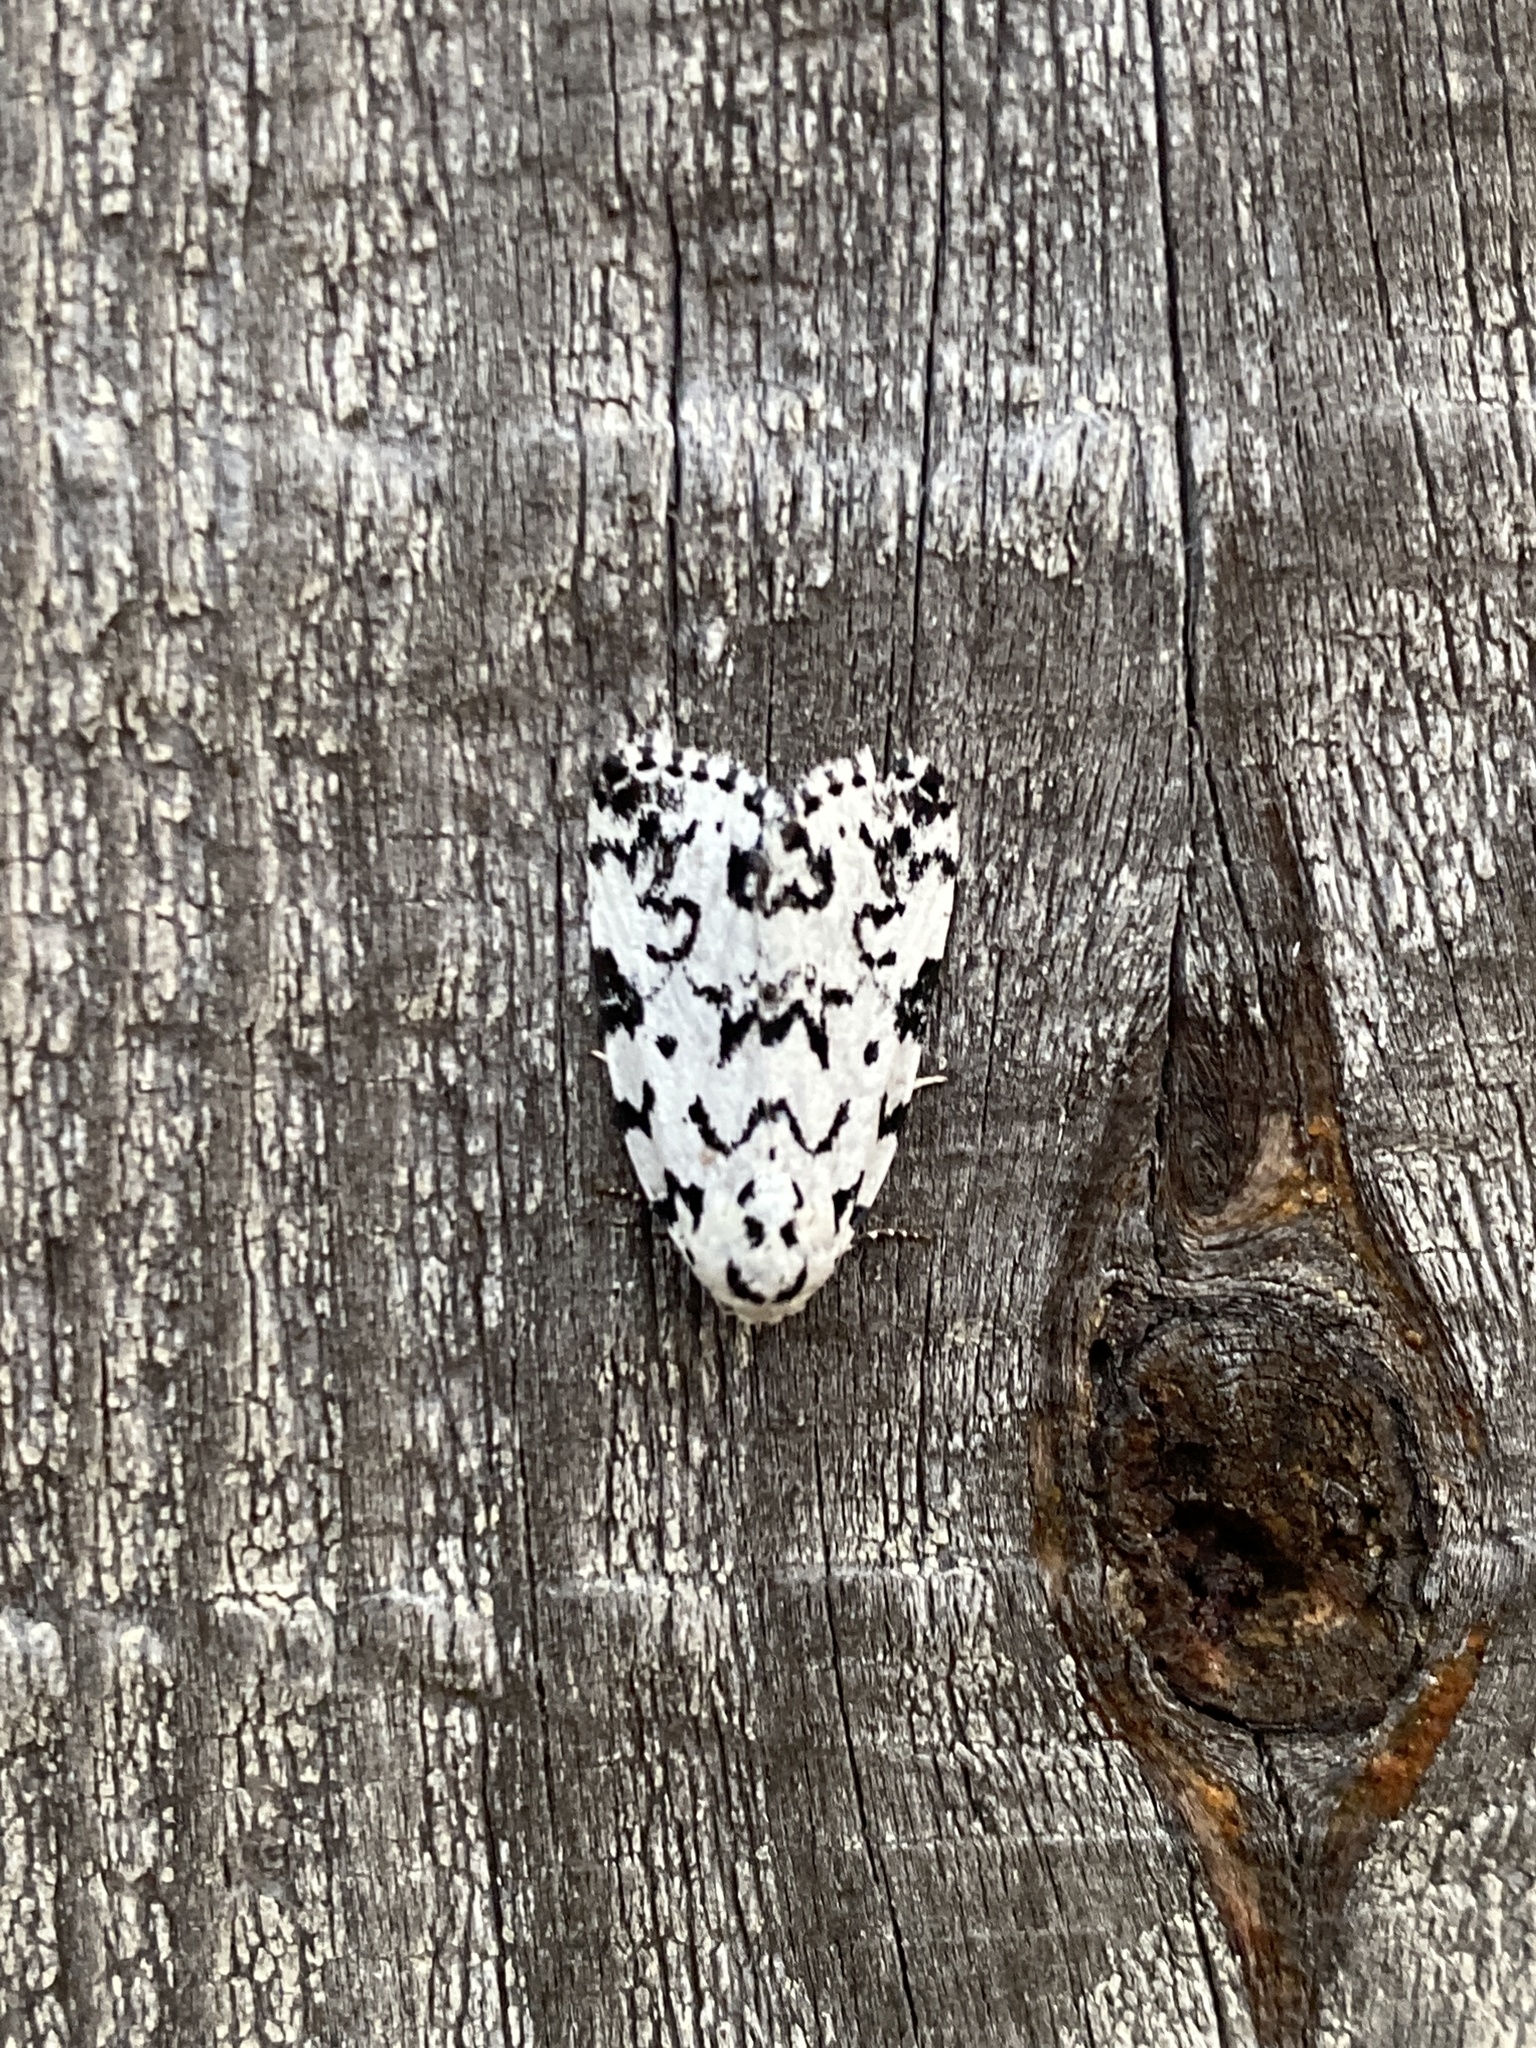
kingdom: Animalia
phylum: Arthropoda
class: Insecta
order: Lepidoptera
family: Noctuidae
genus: Polygrammate
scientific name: Polygrammate hebraeicum
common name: Hebrew moth
